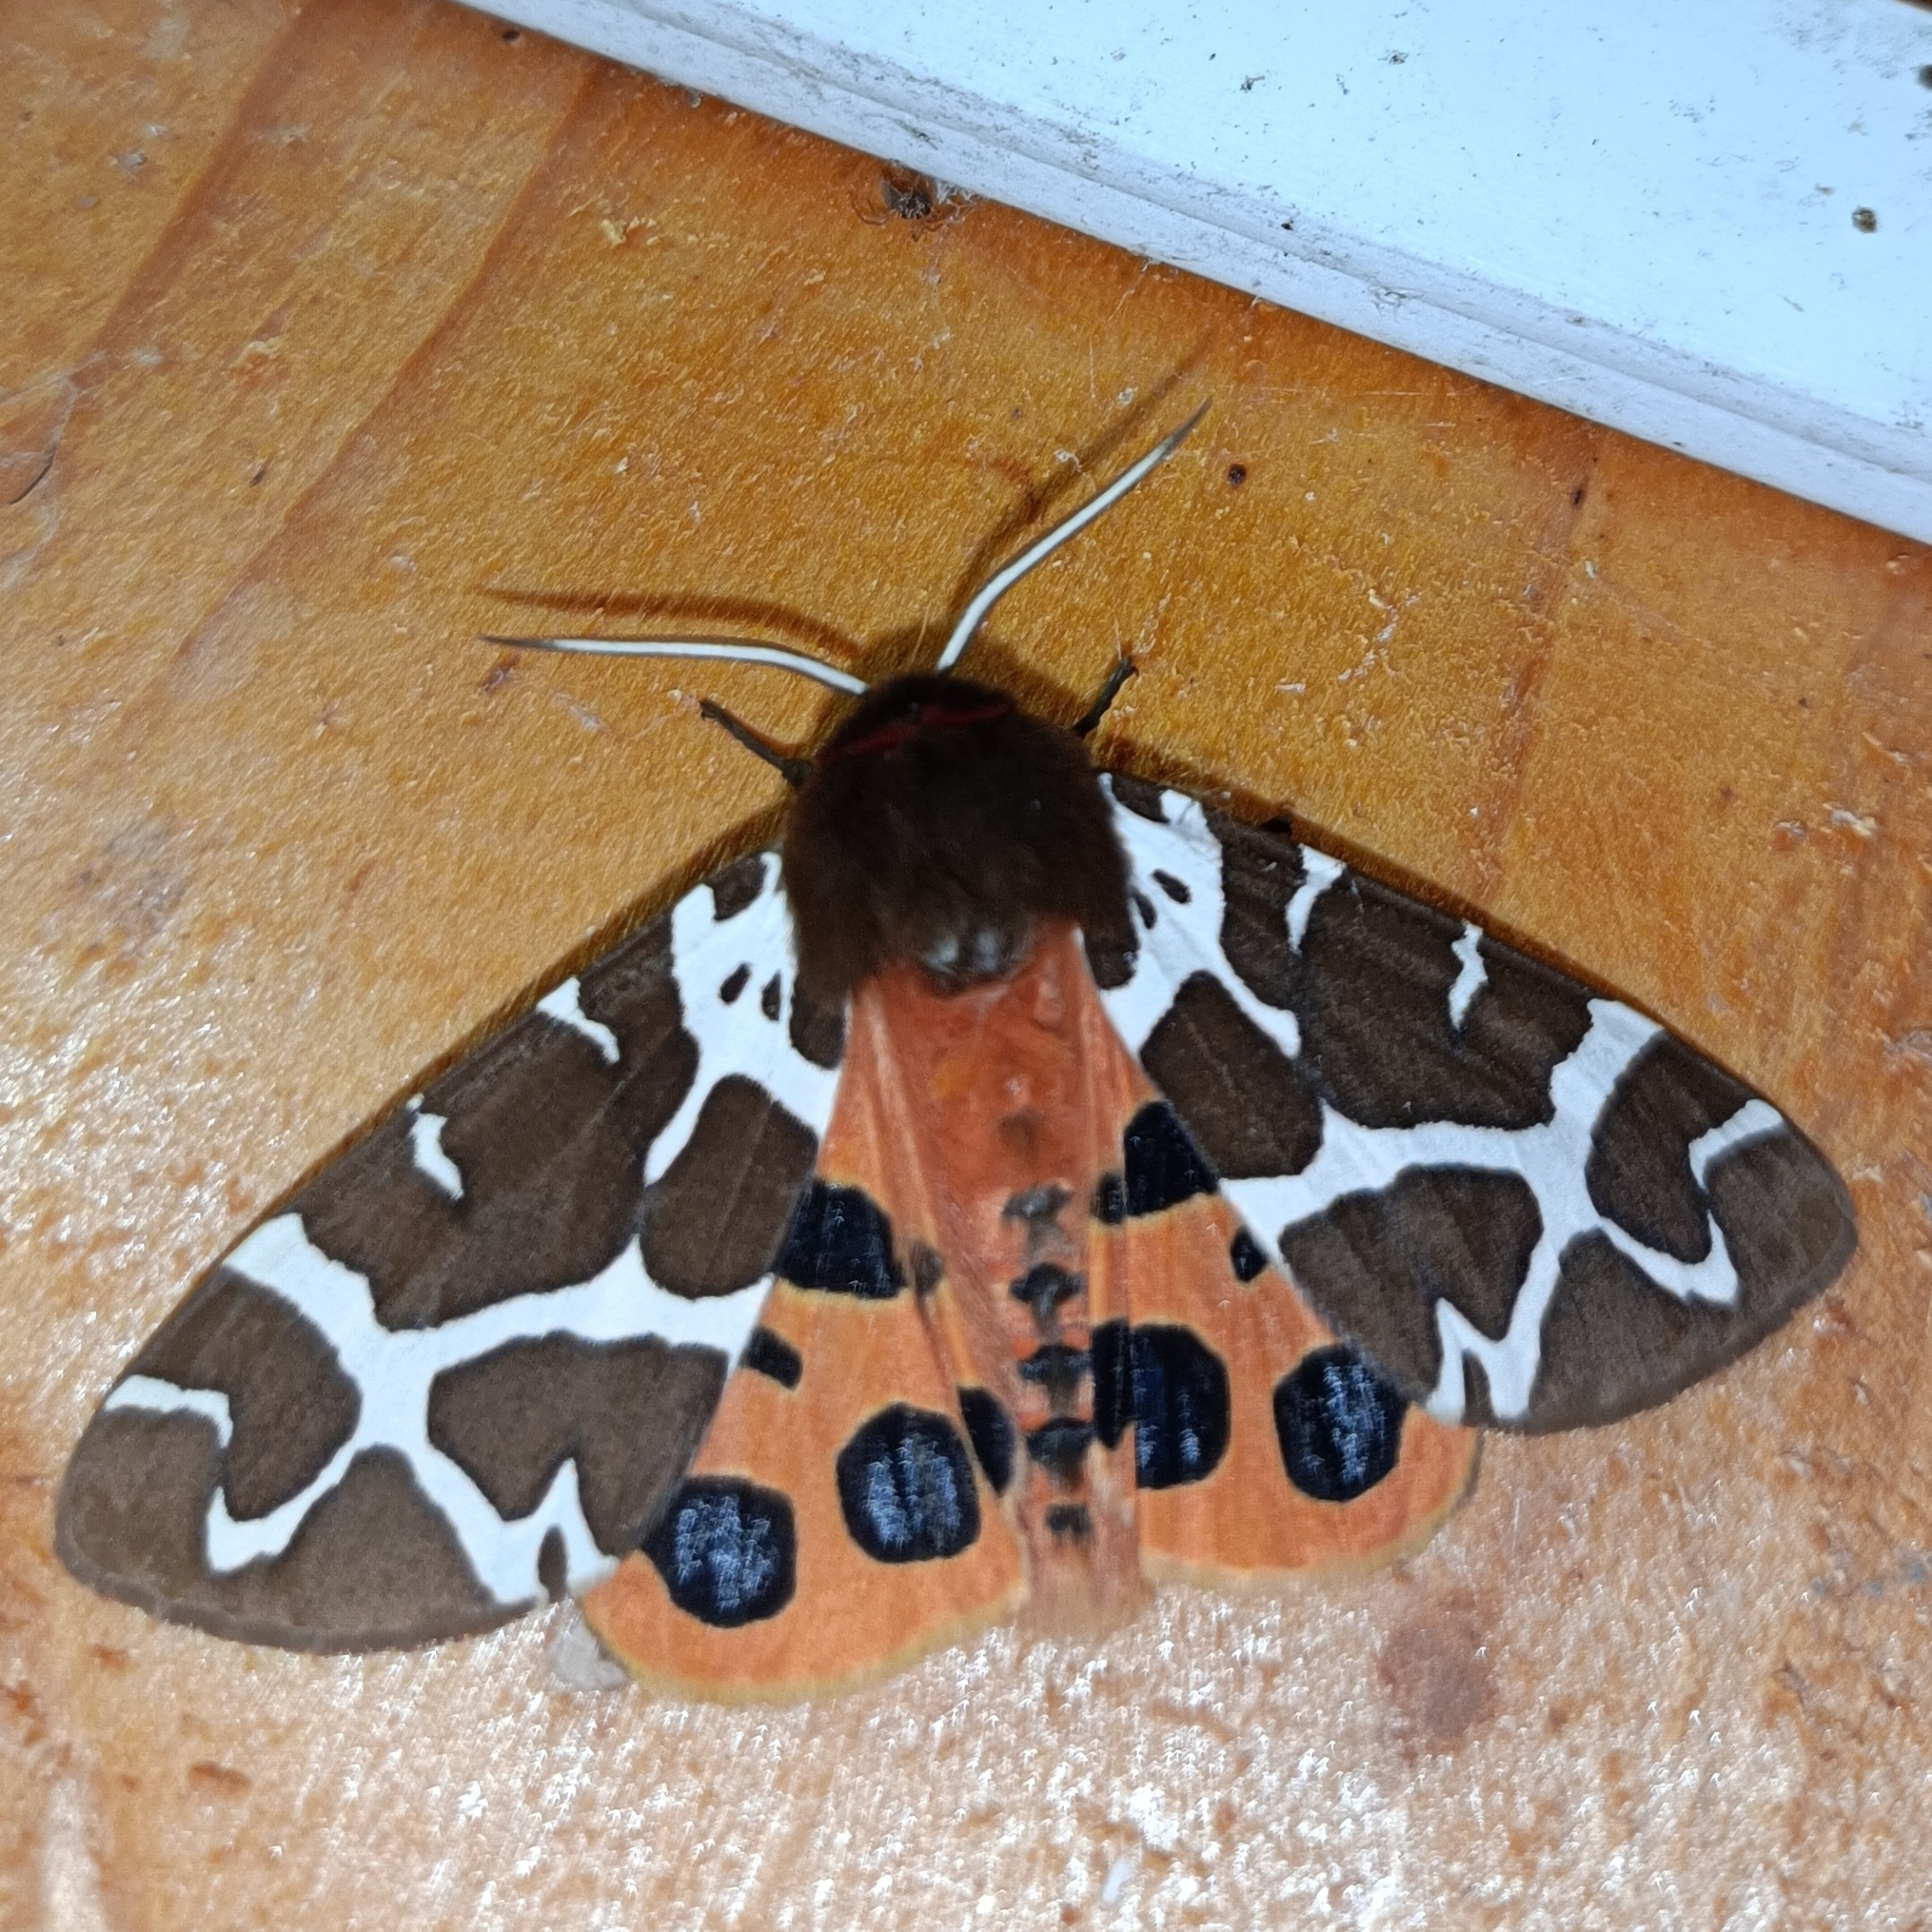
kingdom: Animalia
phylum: Arthropoda
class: Insecta
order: Lepidoptera
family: Erebidae
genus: Arctia
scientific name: Arctia caja
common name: Garden tiger
